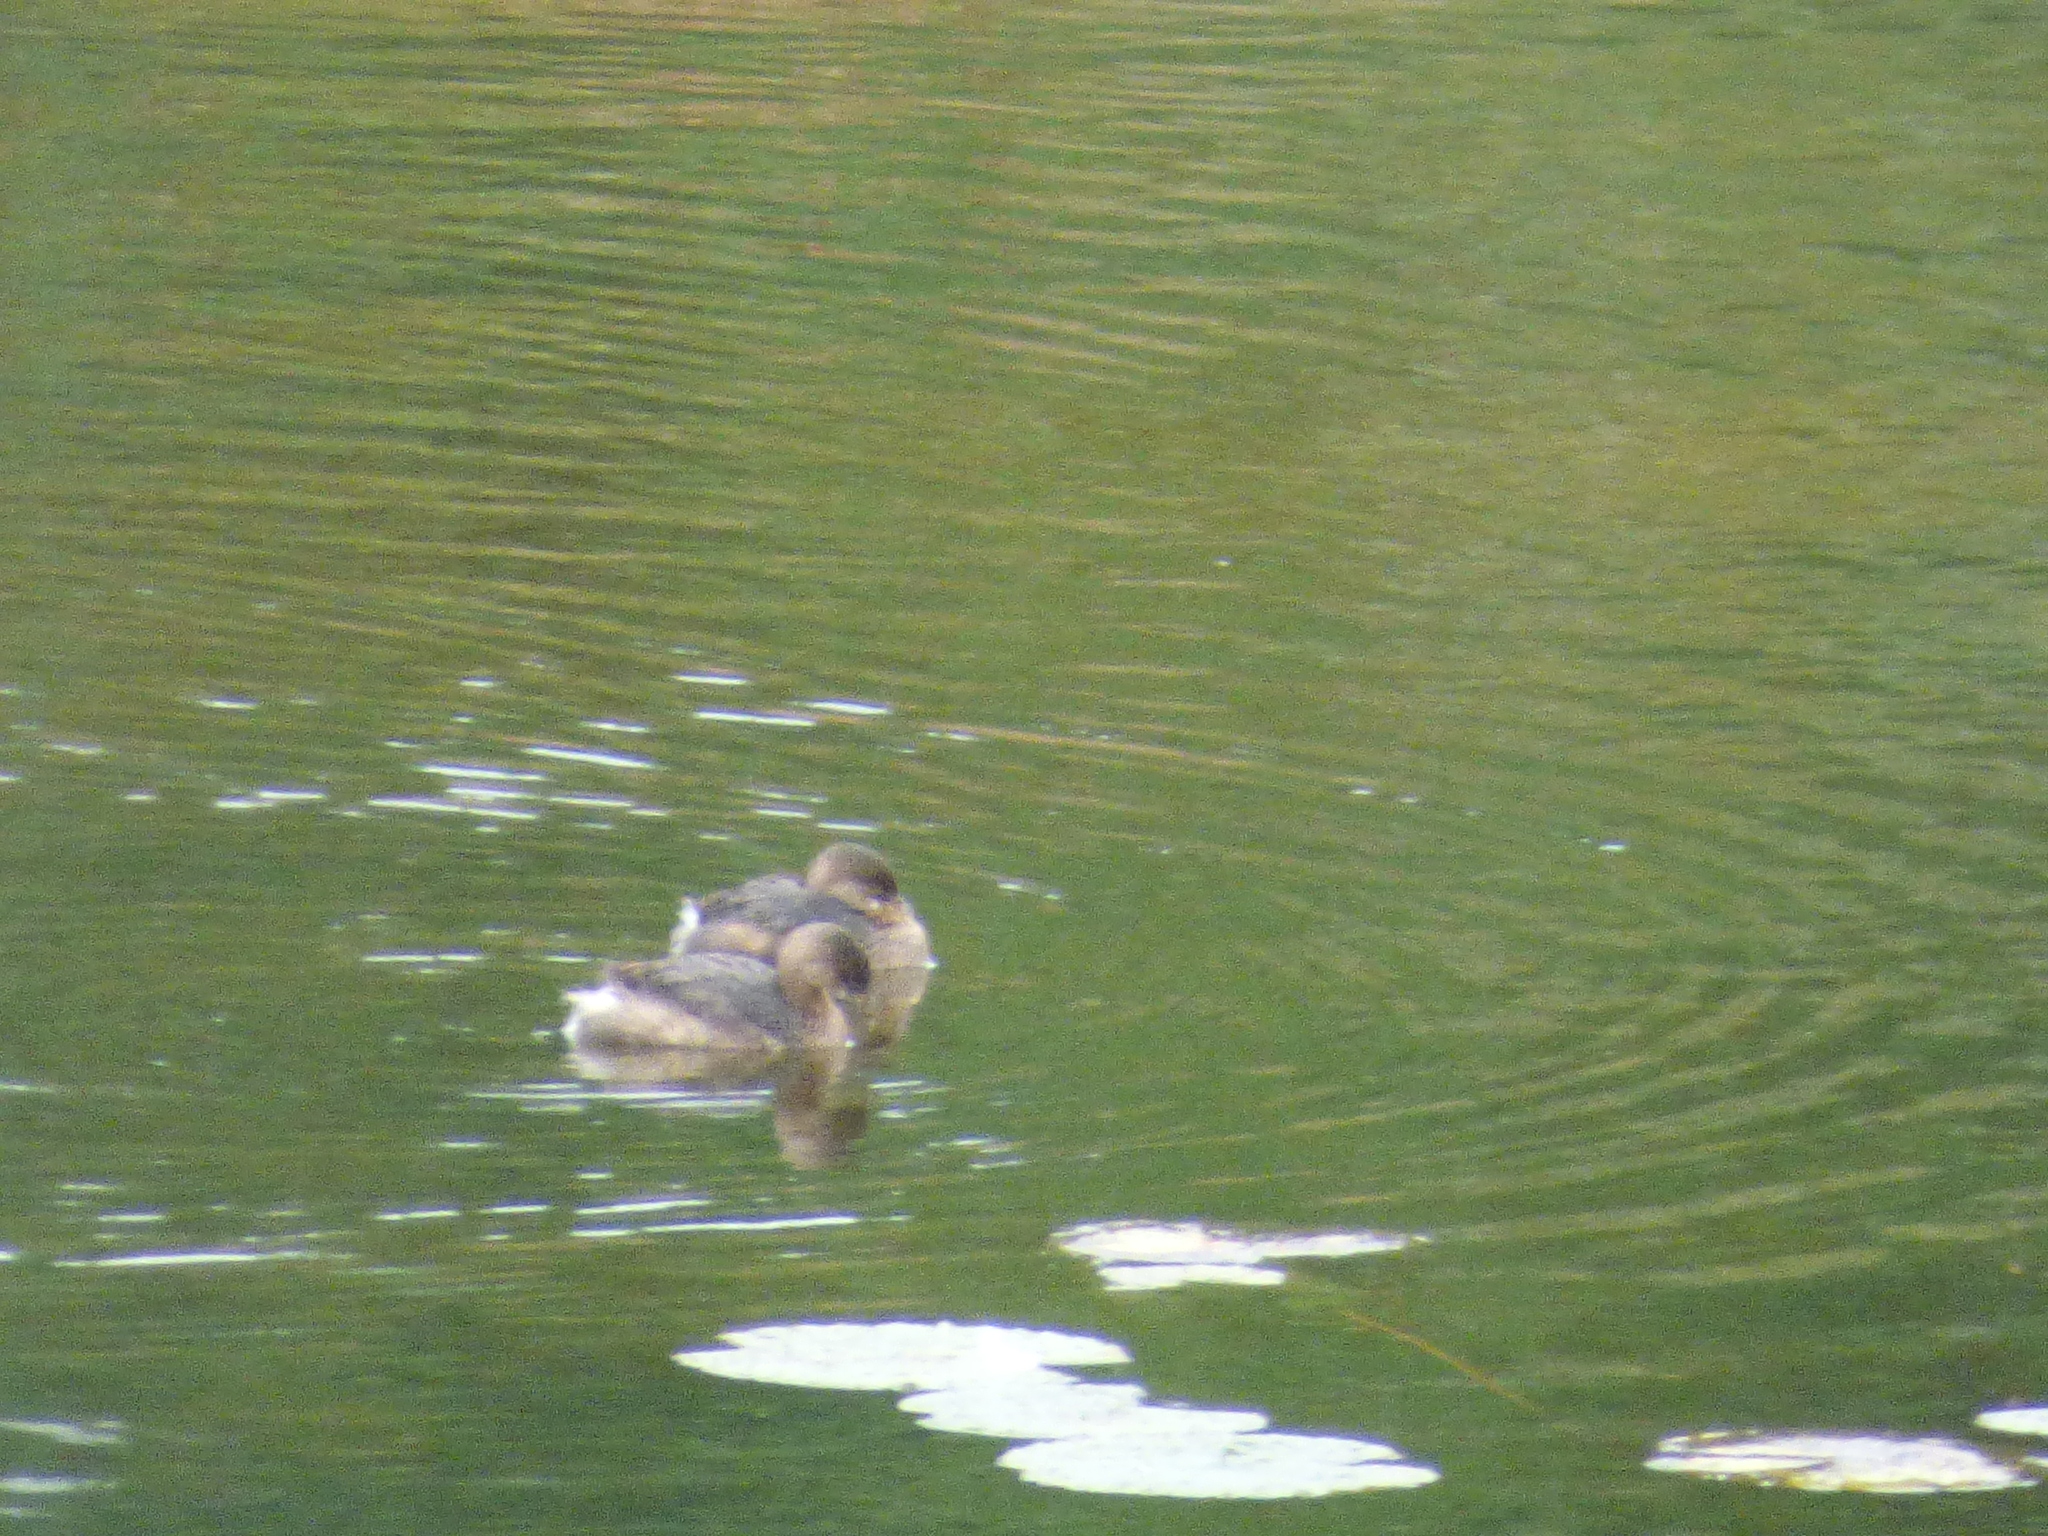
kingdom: Animalia
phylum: Chordata
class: Aves
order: Podicipediformes
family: Podicipedidae
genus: Podilymbus
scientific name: Podilymbus podiceps
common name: Pied-billed grebe
